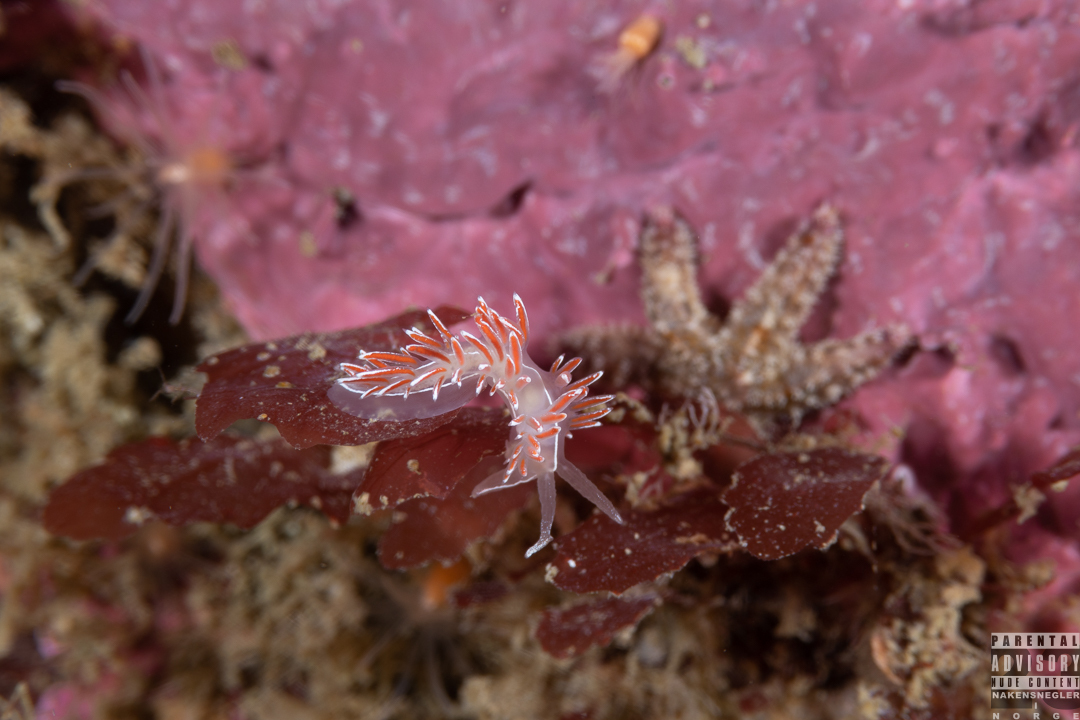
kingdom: Animalia
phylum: Mollusca
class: Gastropoda
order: Nudibranchia
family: Coryphellidae
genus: Coryphella
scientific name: Coryphella lineata
